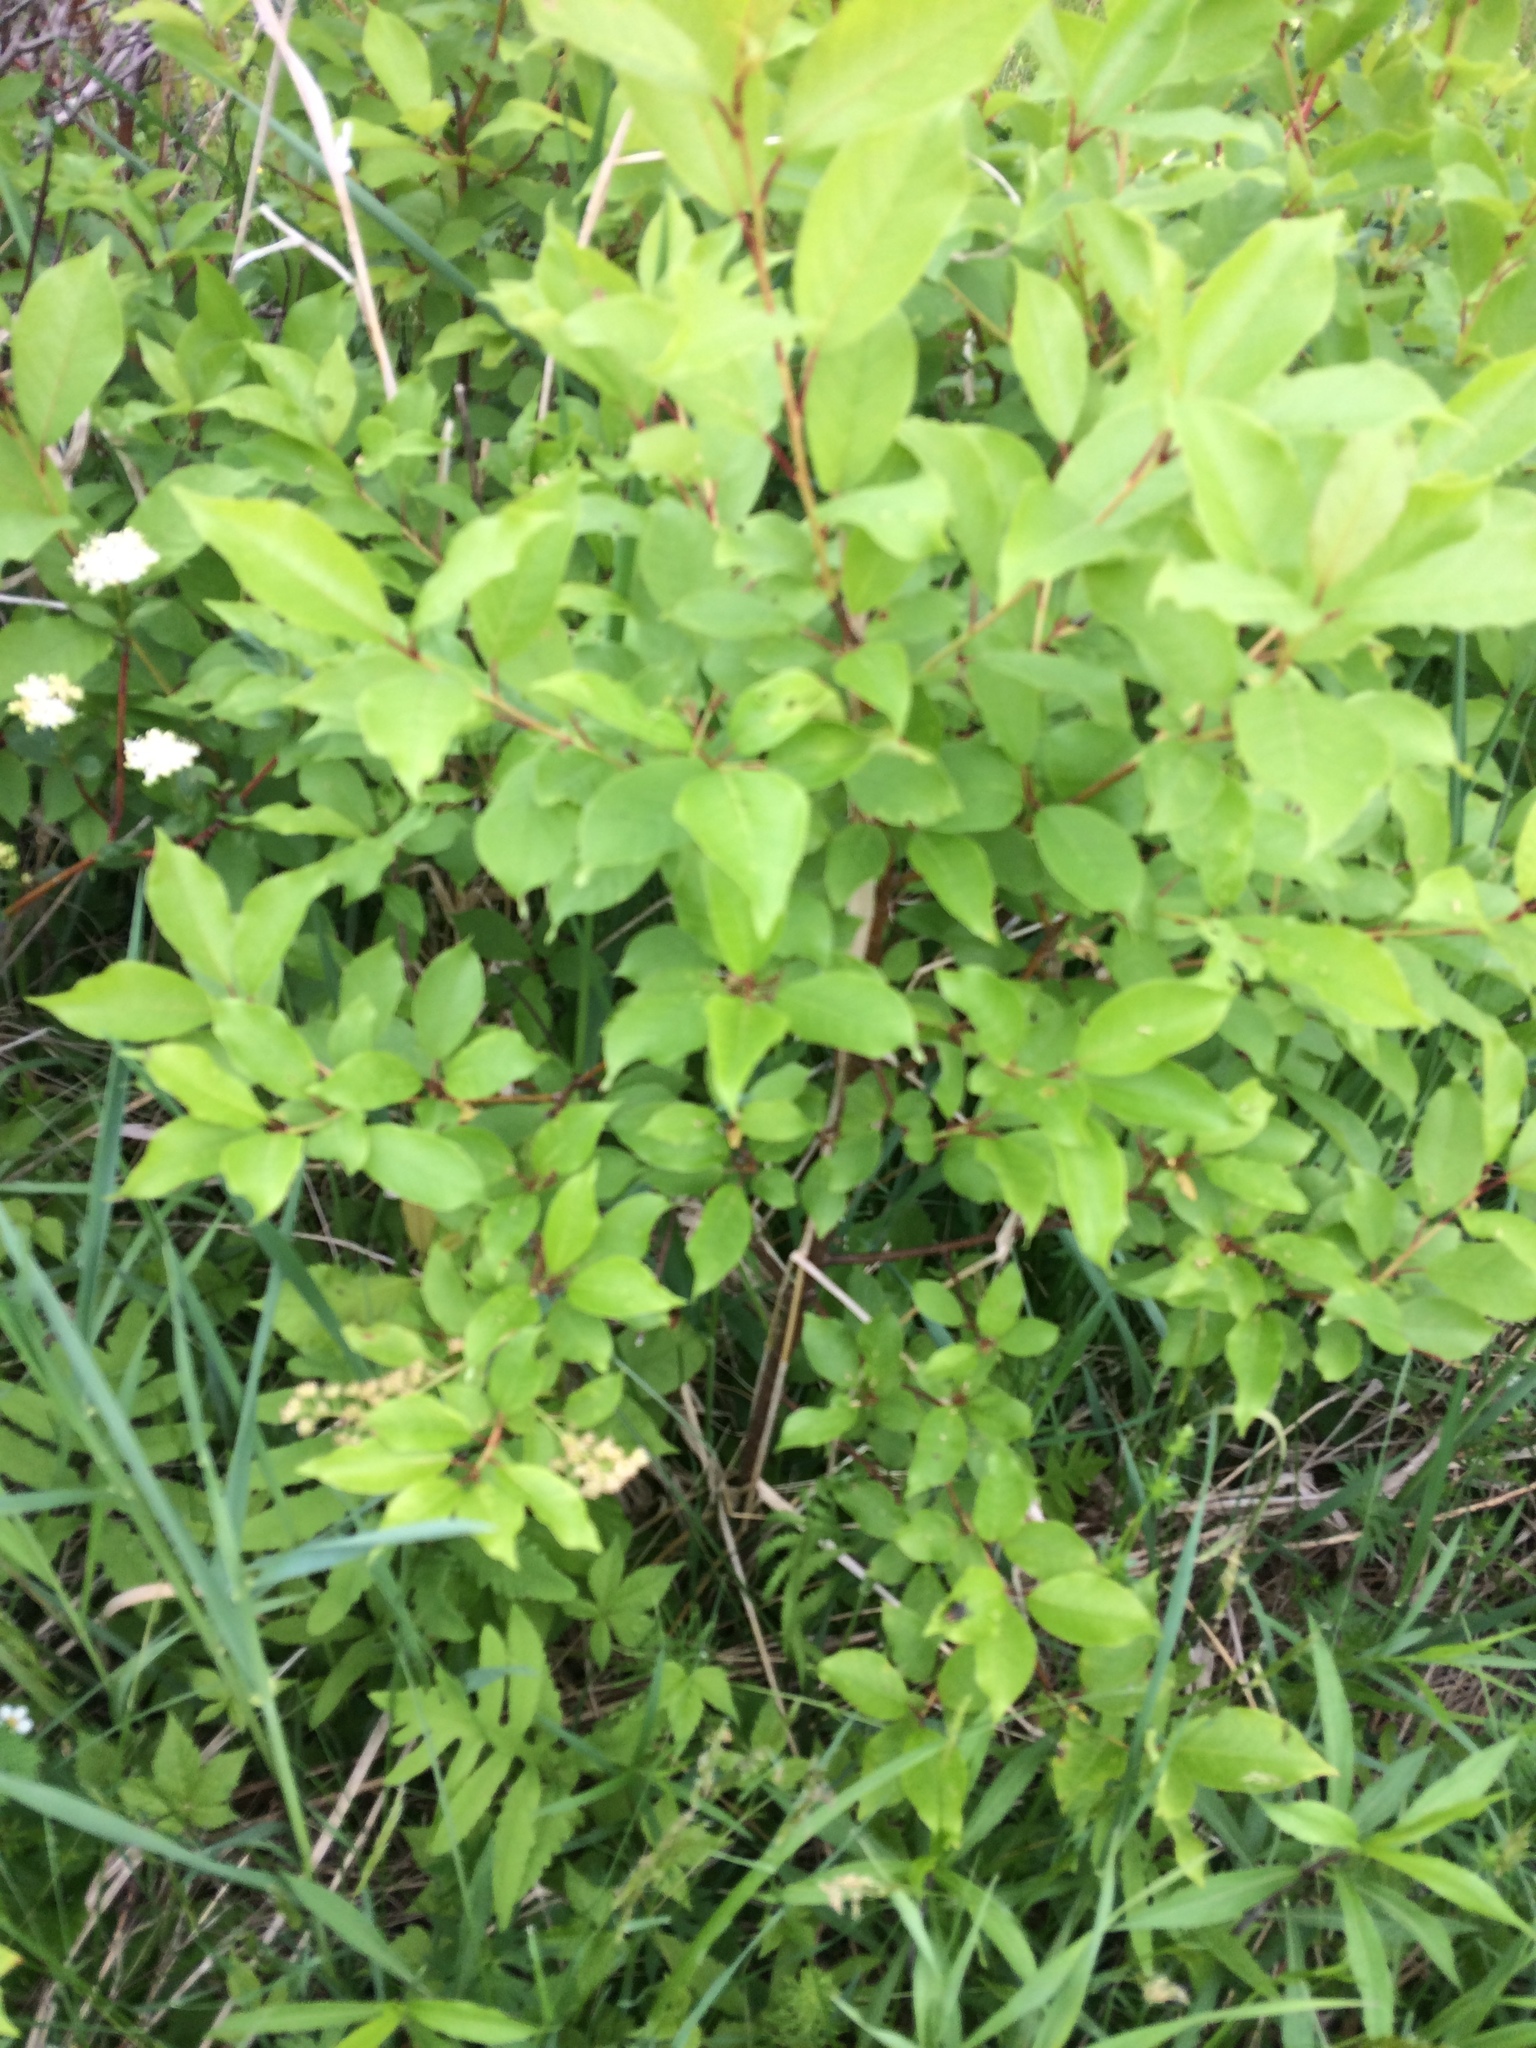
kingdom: Plantae
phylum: Tracheophyta
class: Magnoliopsida
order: Rosales
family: Rosaceae
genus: Prunus
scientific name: Prunus virginiana
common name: Chokecherry
